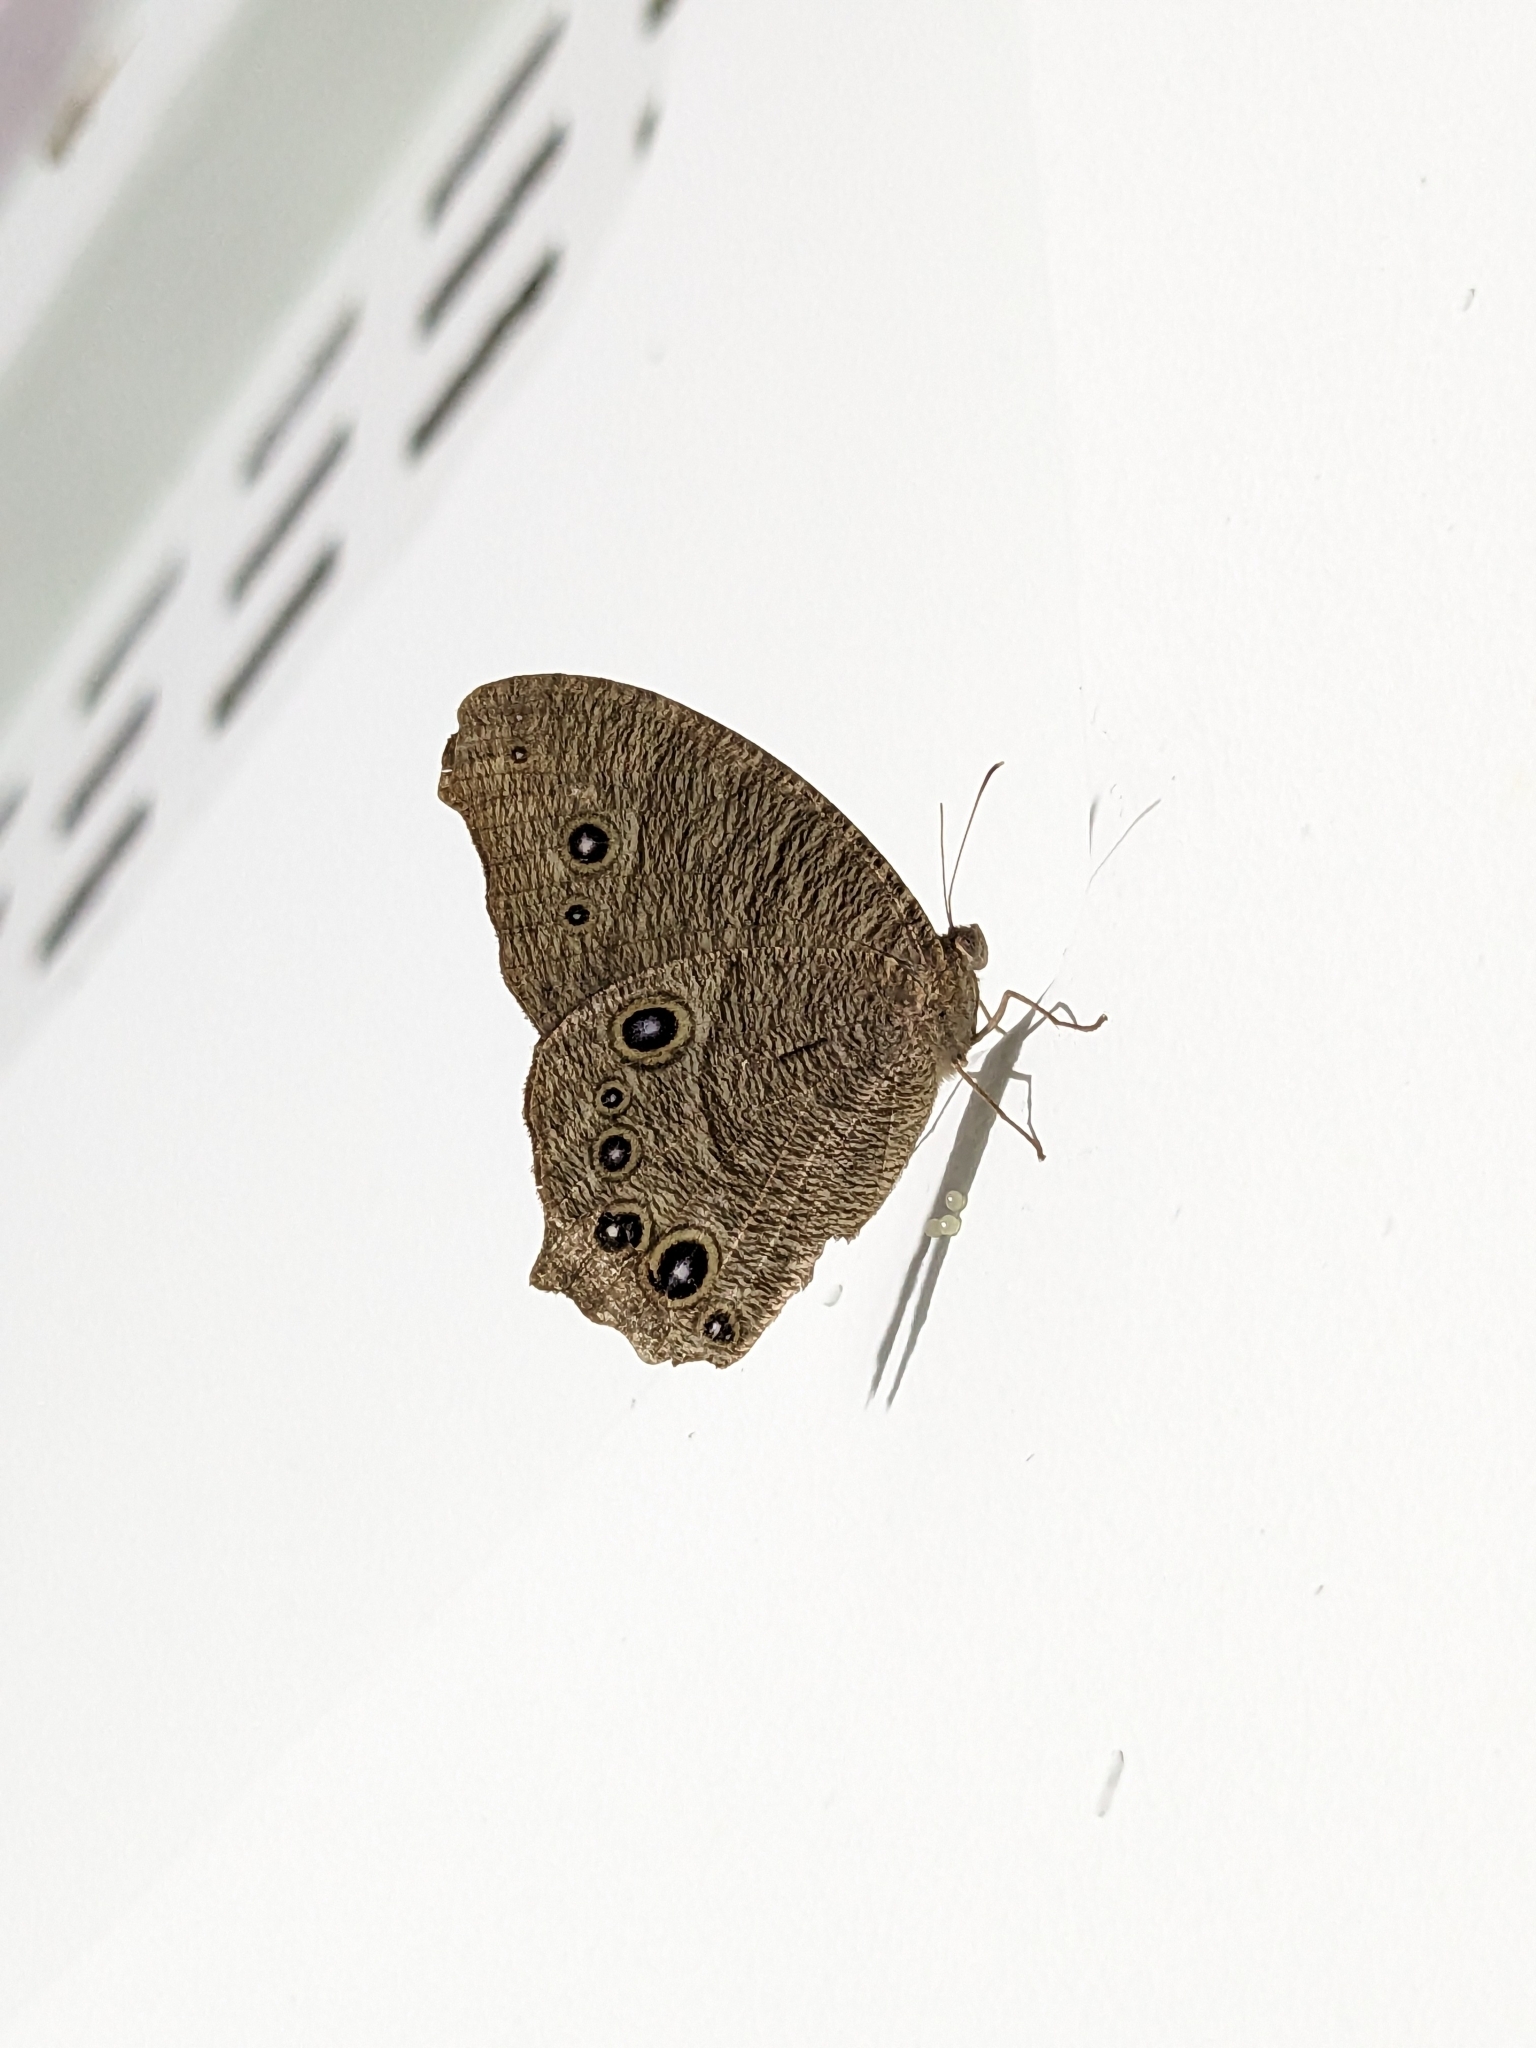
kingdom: Animalia
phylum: Arthropoda
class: Insecta
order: Lepidoptera
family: Nymphalidae
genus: Melanitis
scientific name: Melanitis leda
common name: Twilight brown
